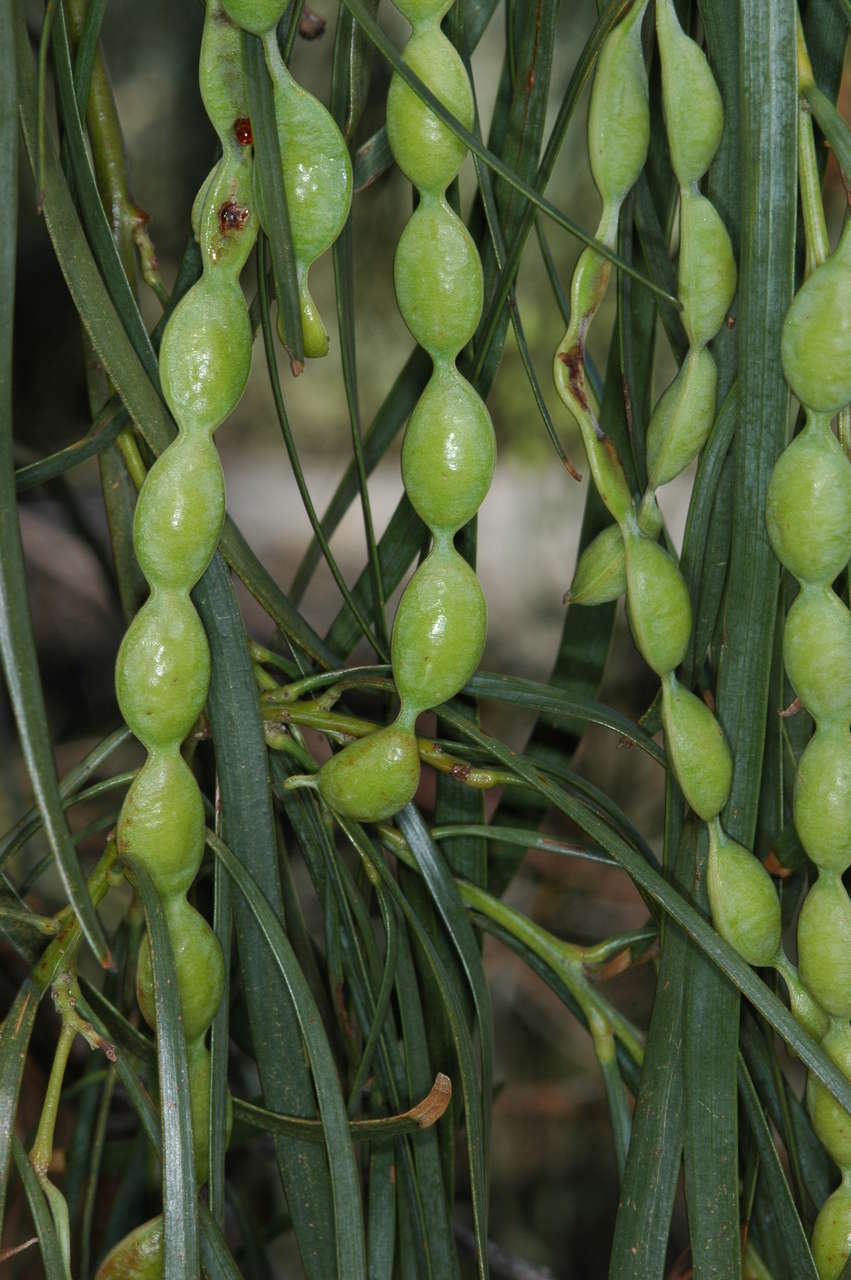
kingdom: Plantae
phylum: Tracheophyta
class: Magnoliopsida
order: Fabales
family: Fabaceae
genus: Acacia
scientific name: Acacia stenophylla
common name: River cooba
